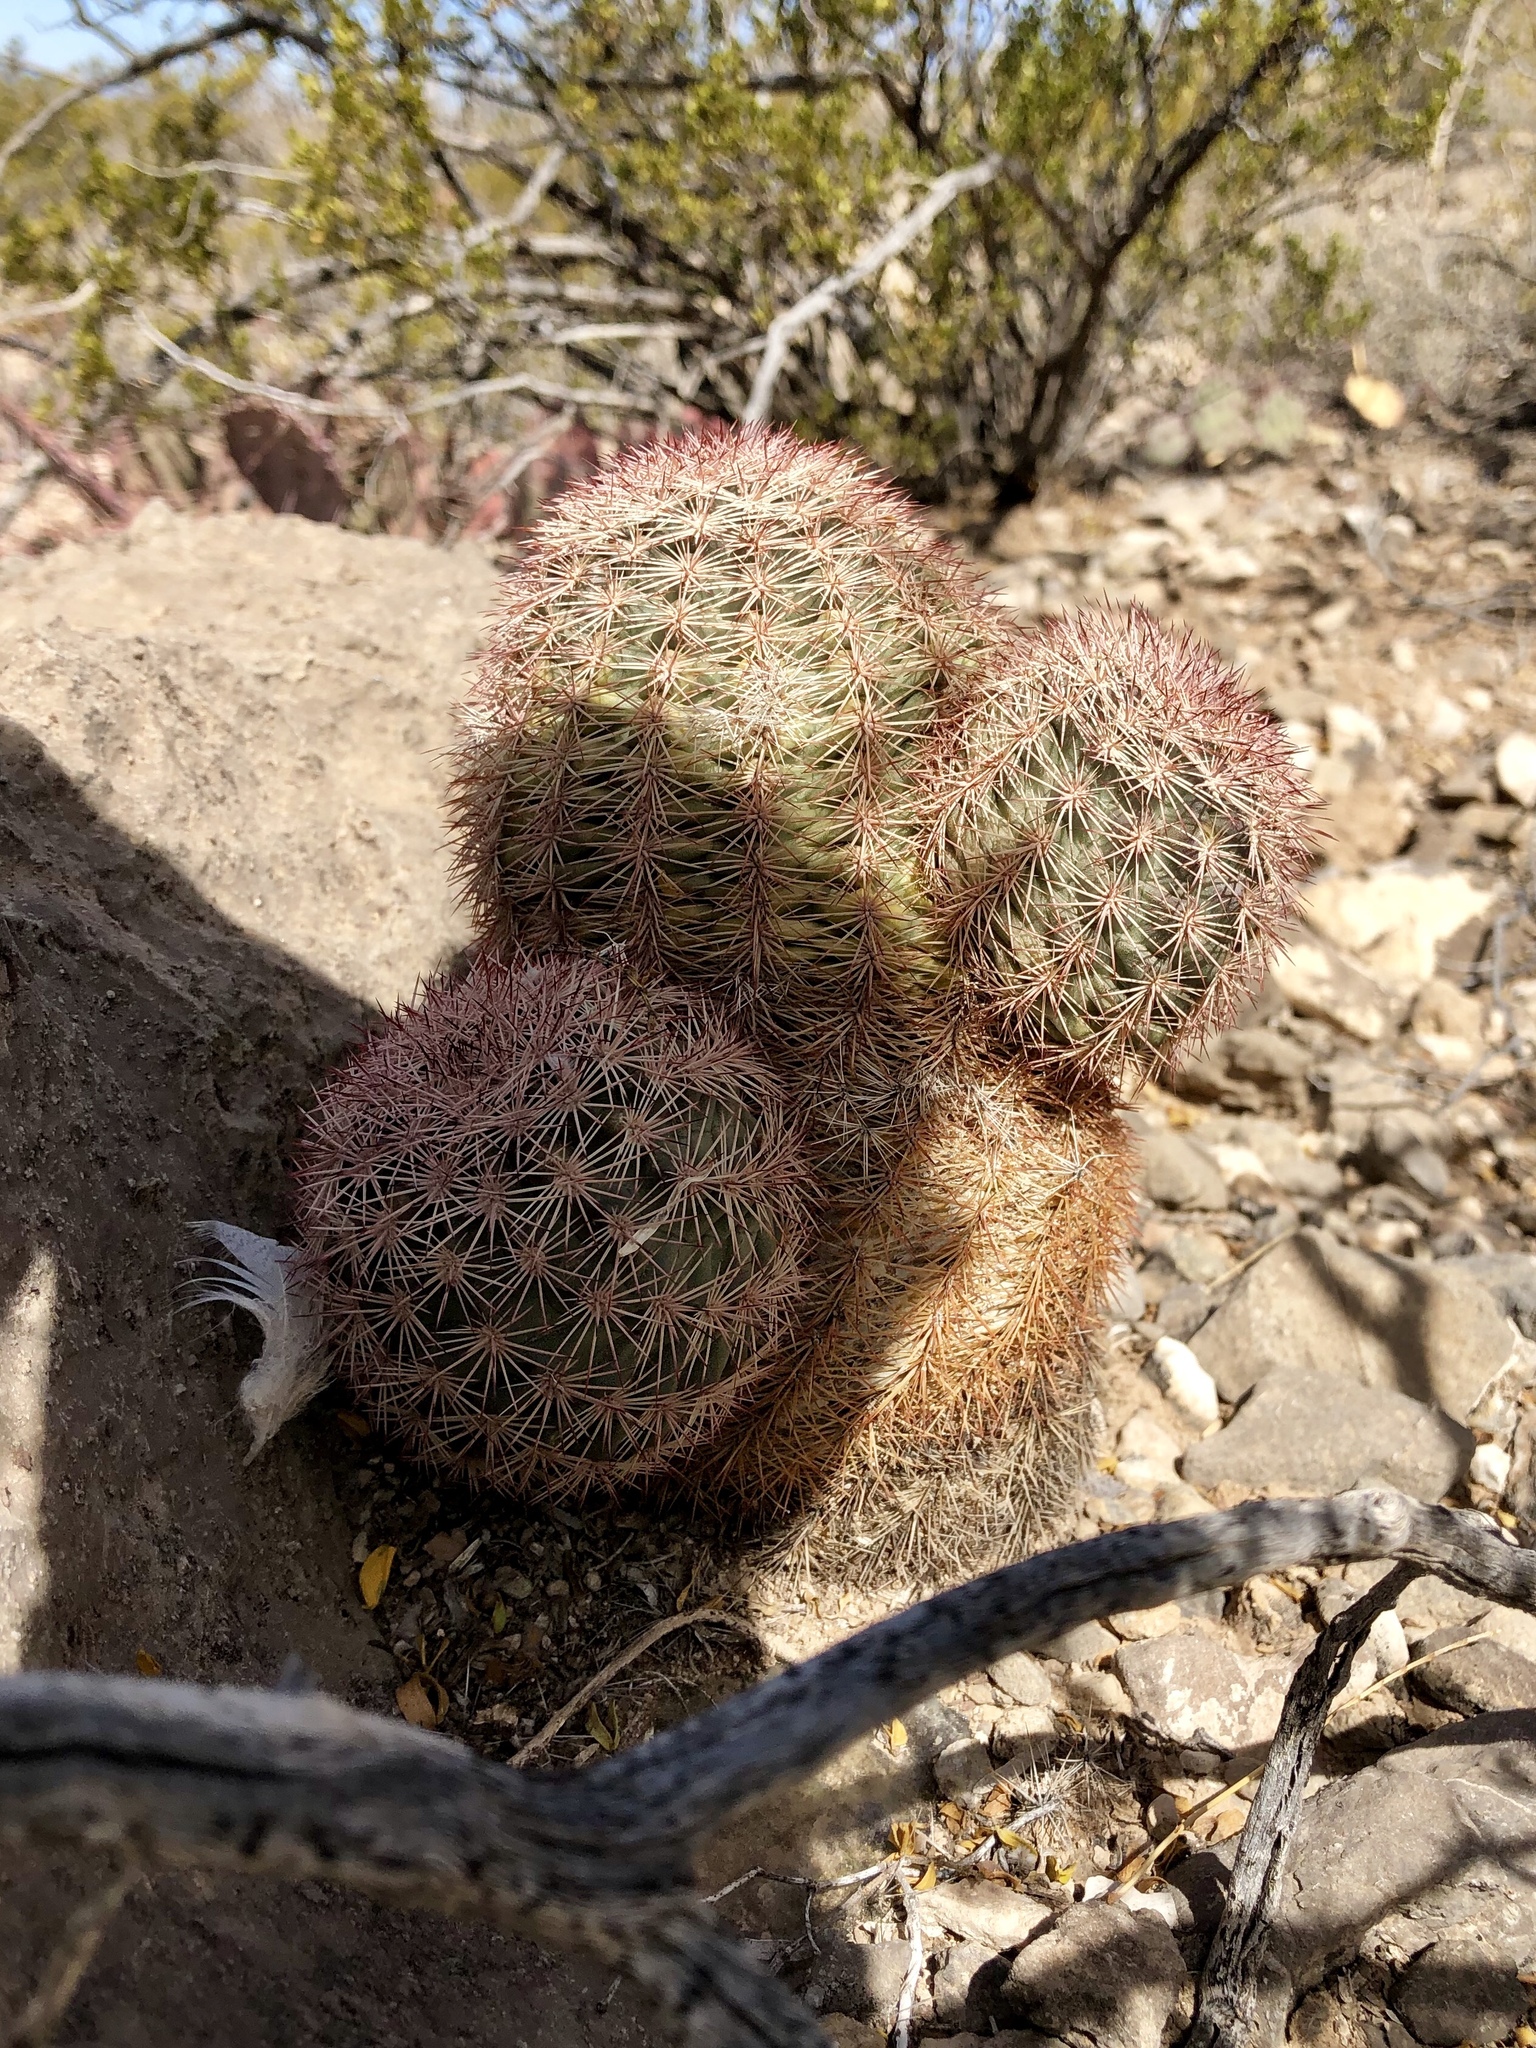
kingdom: Plantae
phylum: Tracheophyta
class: Magnoliopsida
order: Caryophyllales
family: Cactaceae
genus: Echinocereus
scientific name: Echinocereus dasyacanthus
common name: Spiny hedgehog cactus
